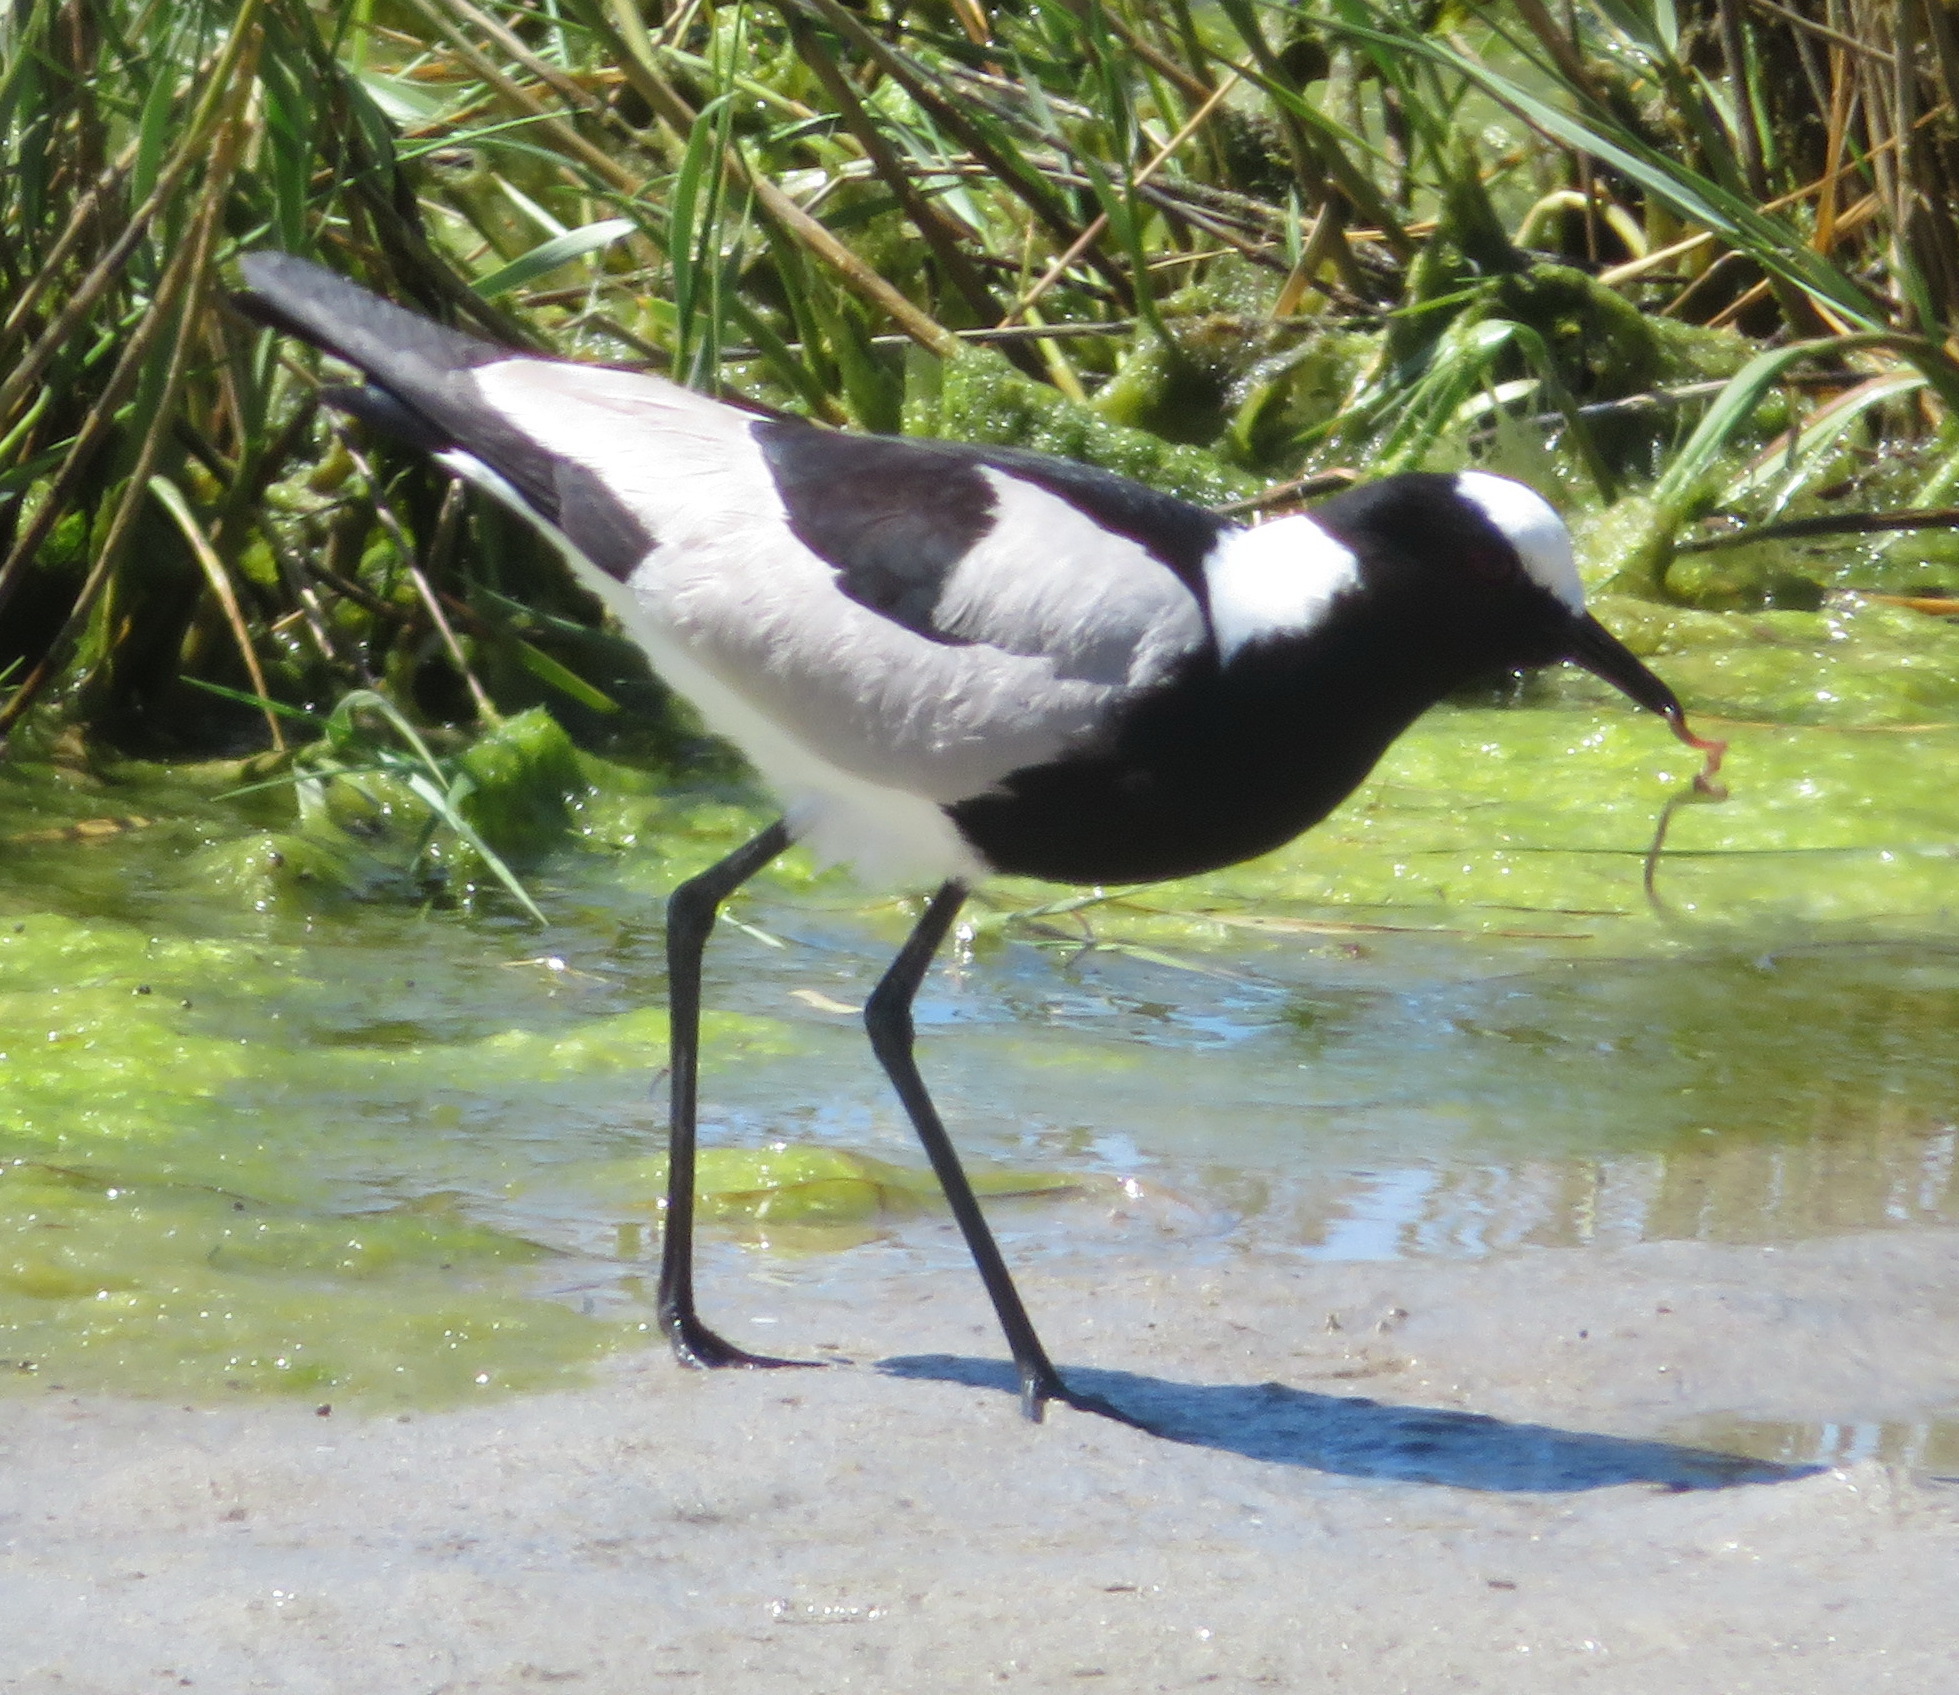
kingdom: Animalia
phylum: Chordata
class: Aves
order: Charadriiformes
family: Charadriidae
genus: Vanellus
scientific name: Vanellus armatus
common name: Blacksmith lapwing
